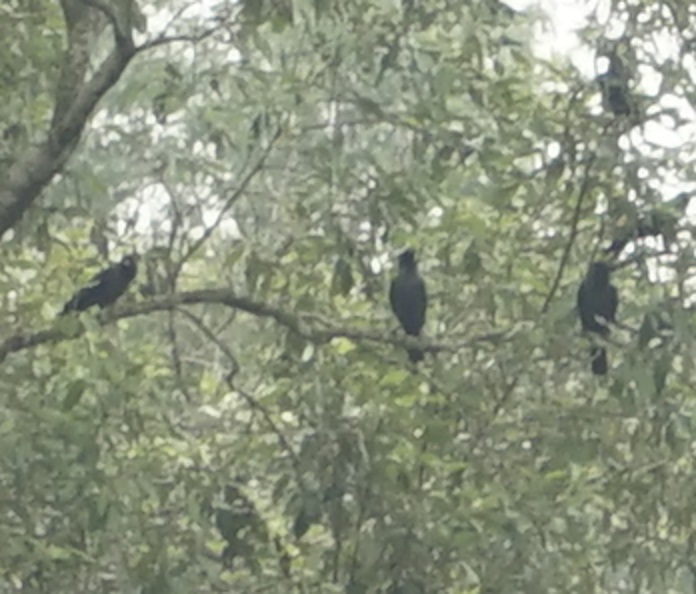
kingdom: Animalia
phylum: Chordata
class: Aves
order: Passeriformes
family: Corvidae
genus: Corvus
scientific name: Corvus splendens
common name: House crow
